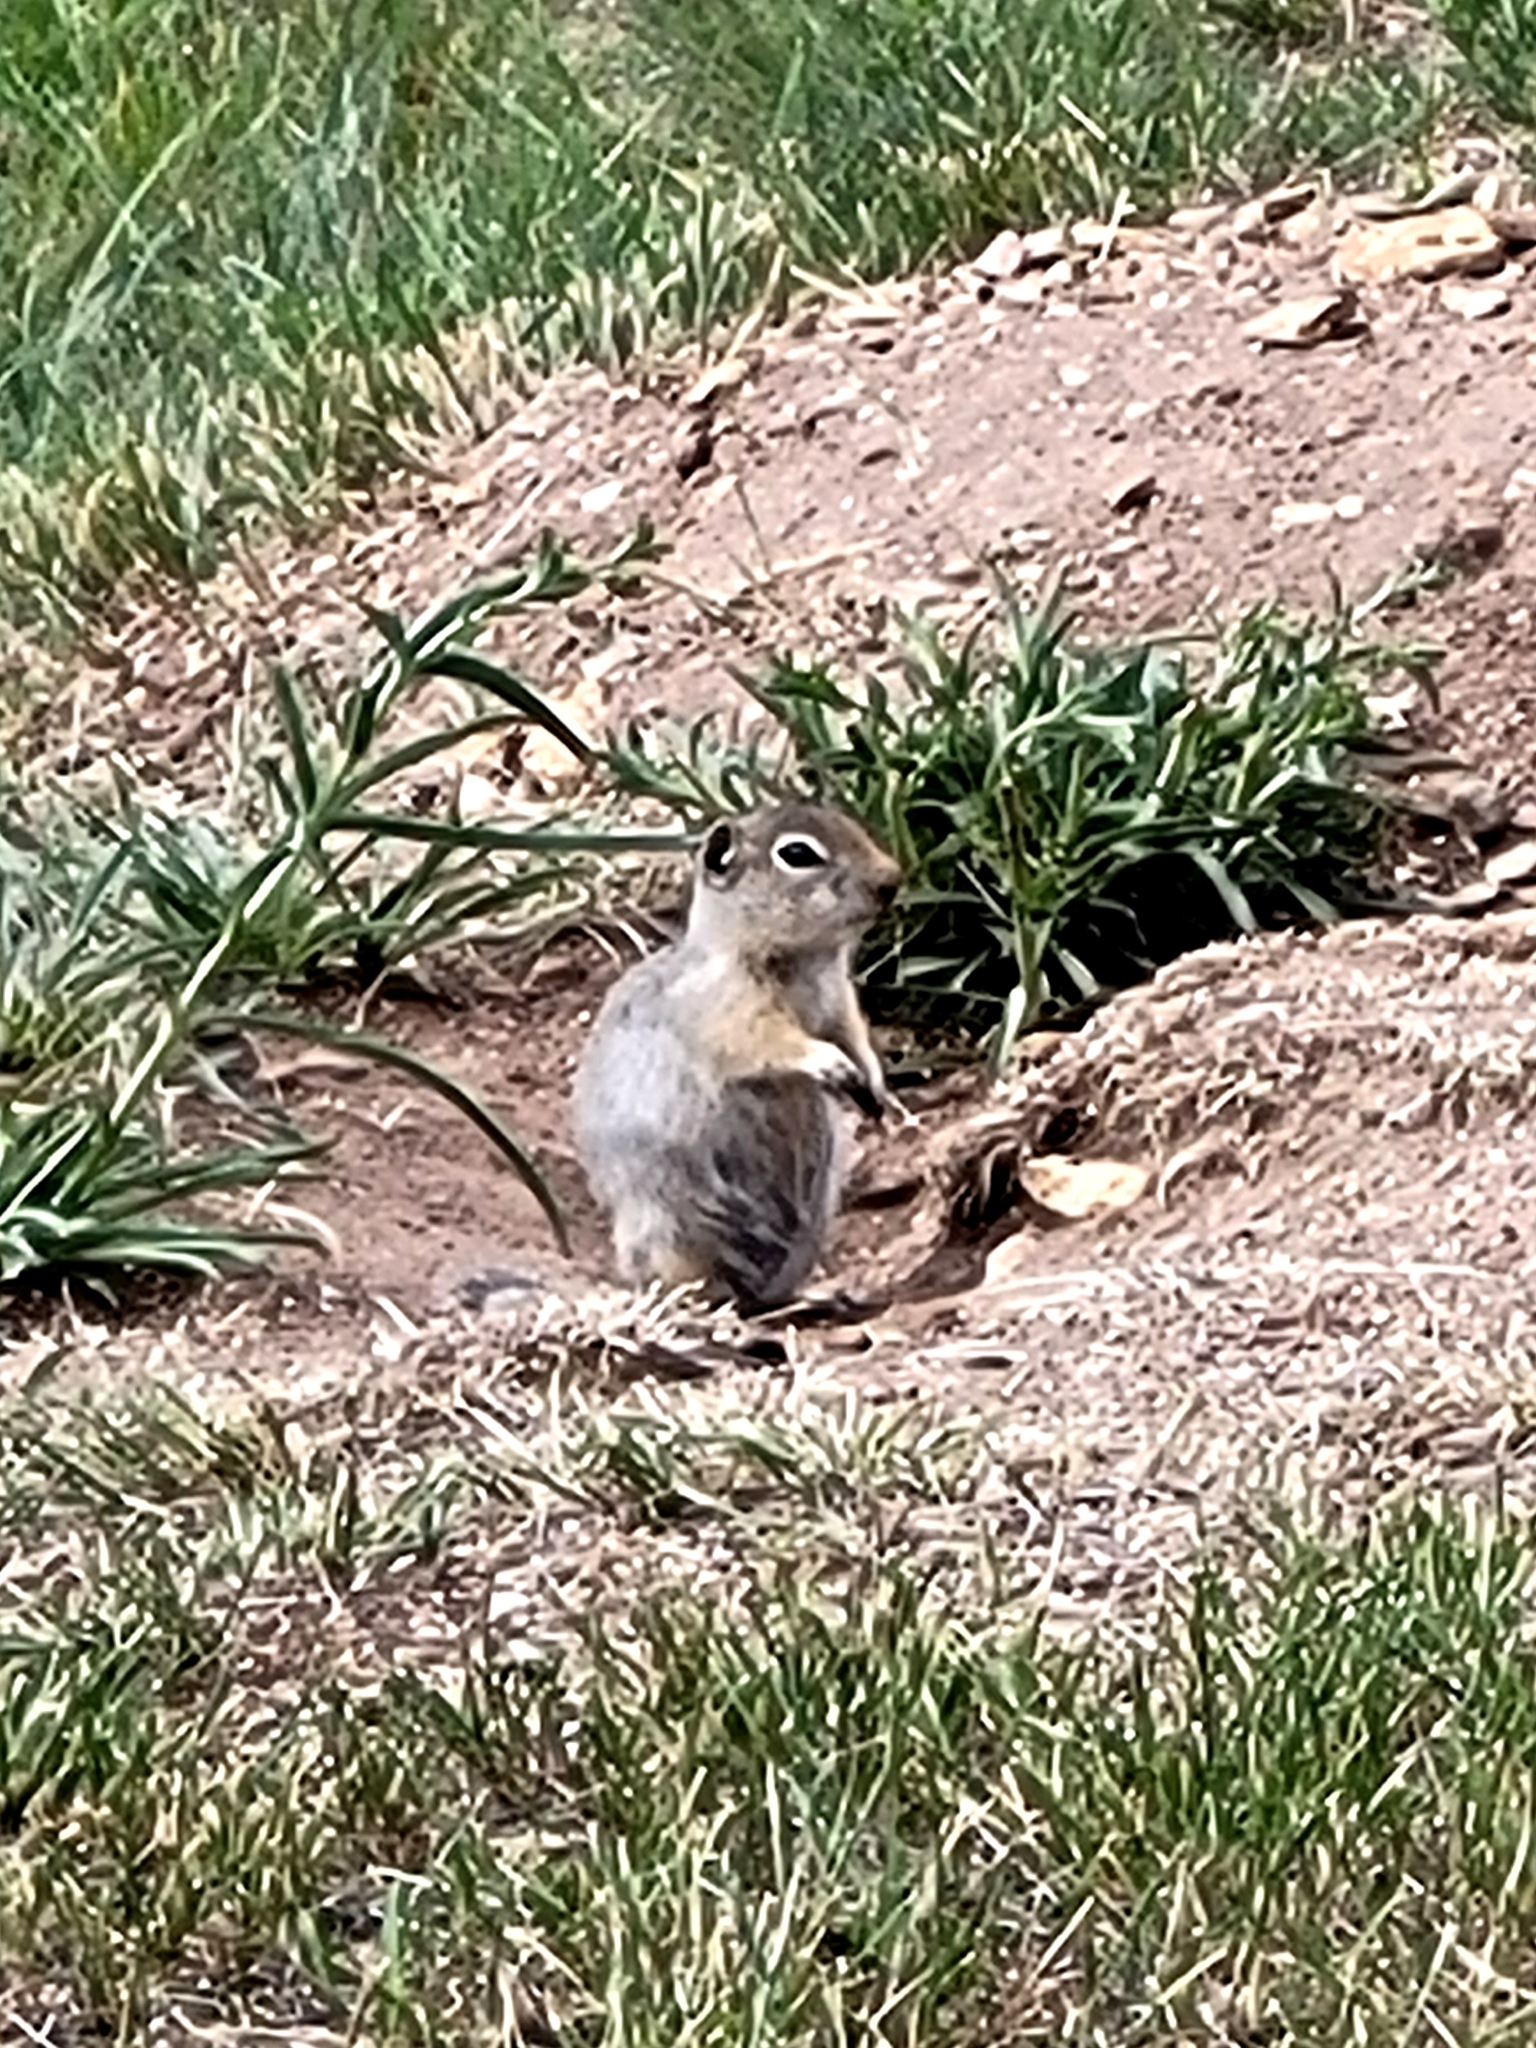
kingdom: Animalia
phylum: Chordata
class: Mammalia
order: Rodentia
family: Sciuridae
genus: Urocitellus
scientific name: Urocitellus elegans
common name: Wyoming ground squirrel
